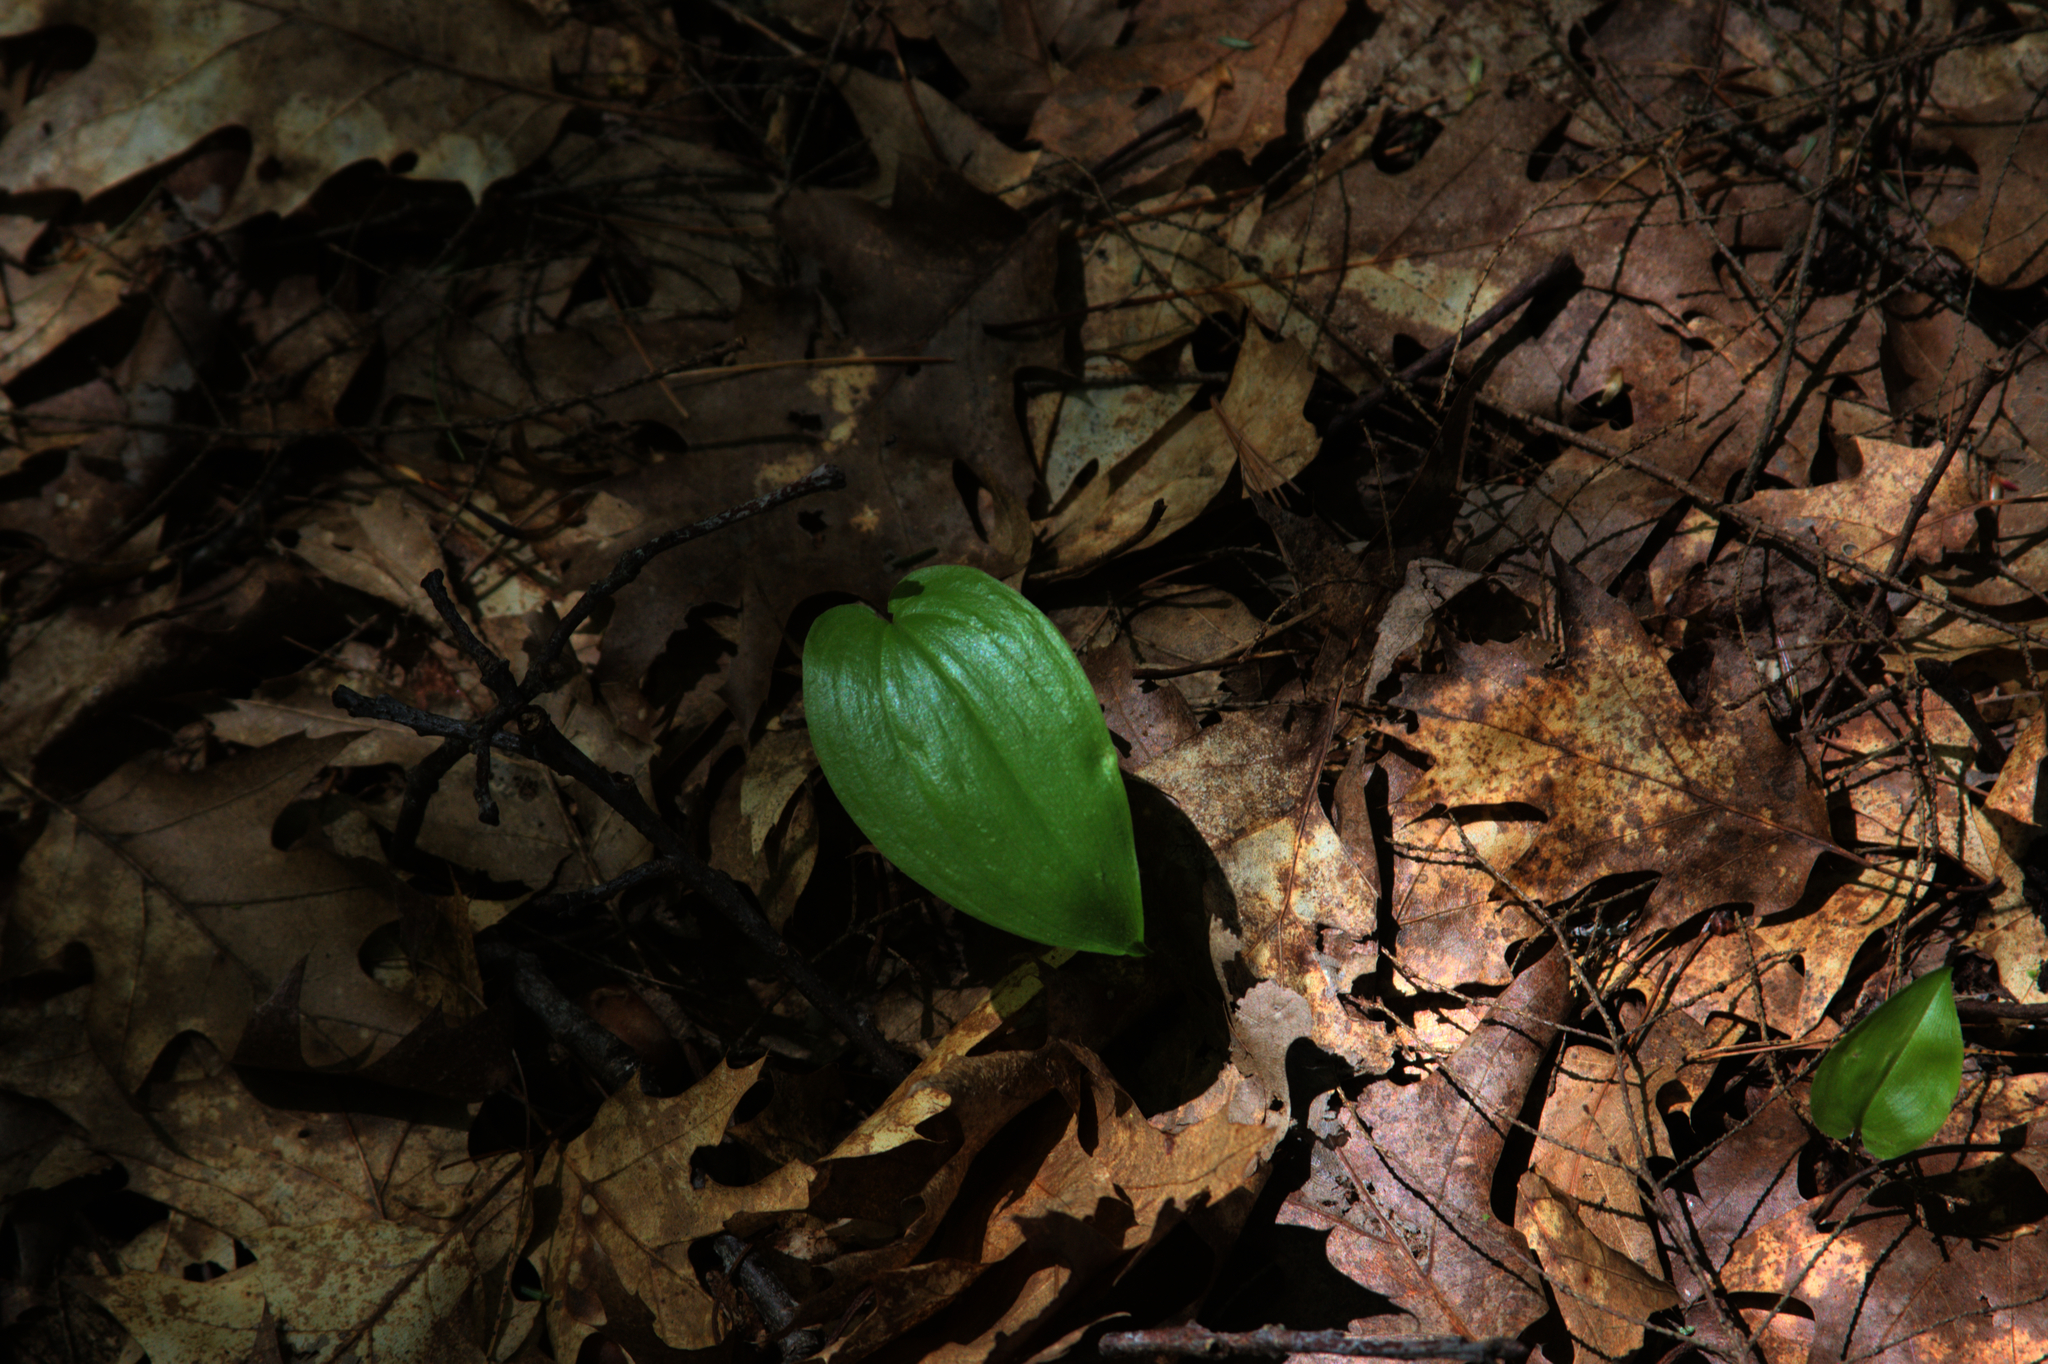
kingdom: Plantae
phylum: Tracheophyta
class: Liliopsida
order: Asparagales
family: Asparagaceae
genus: Maianthemum
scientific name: Maianthemum canadense
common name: False lily-of-the-valley
